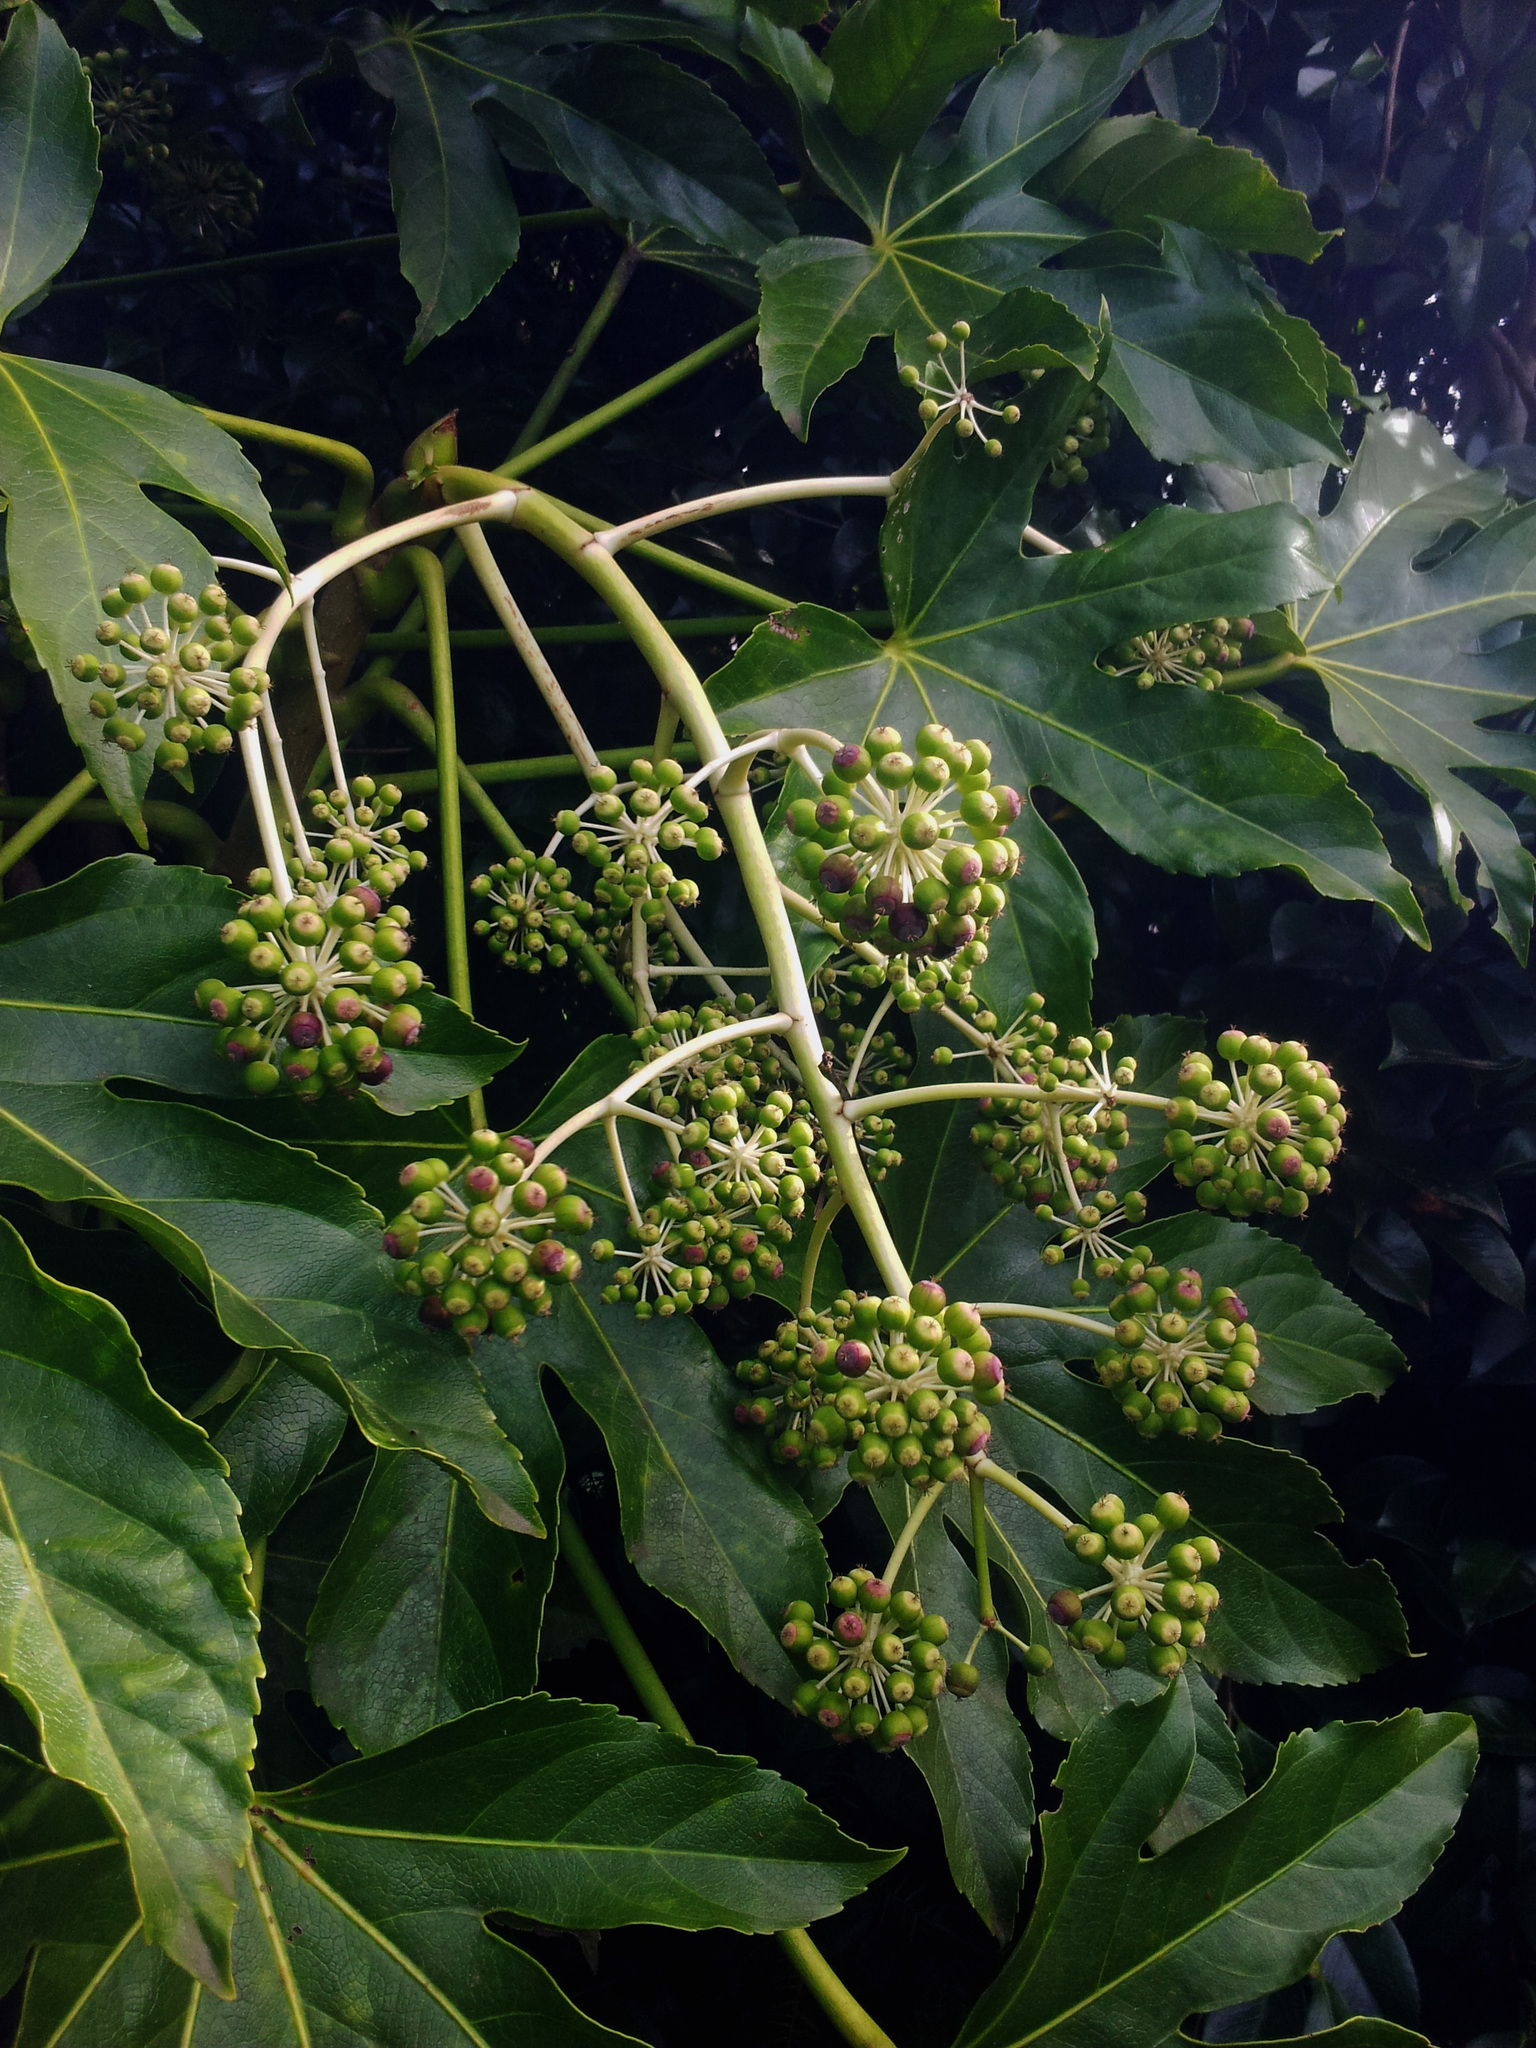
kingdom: Plantae
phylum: Tracheophyta
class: Magnoliopsida
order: Apiales
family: Araliaceae
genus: Fatsia
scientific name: Fatsia japonica
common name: Fatsia
